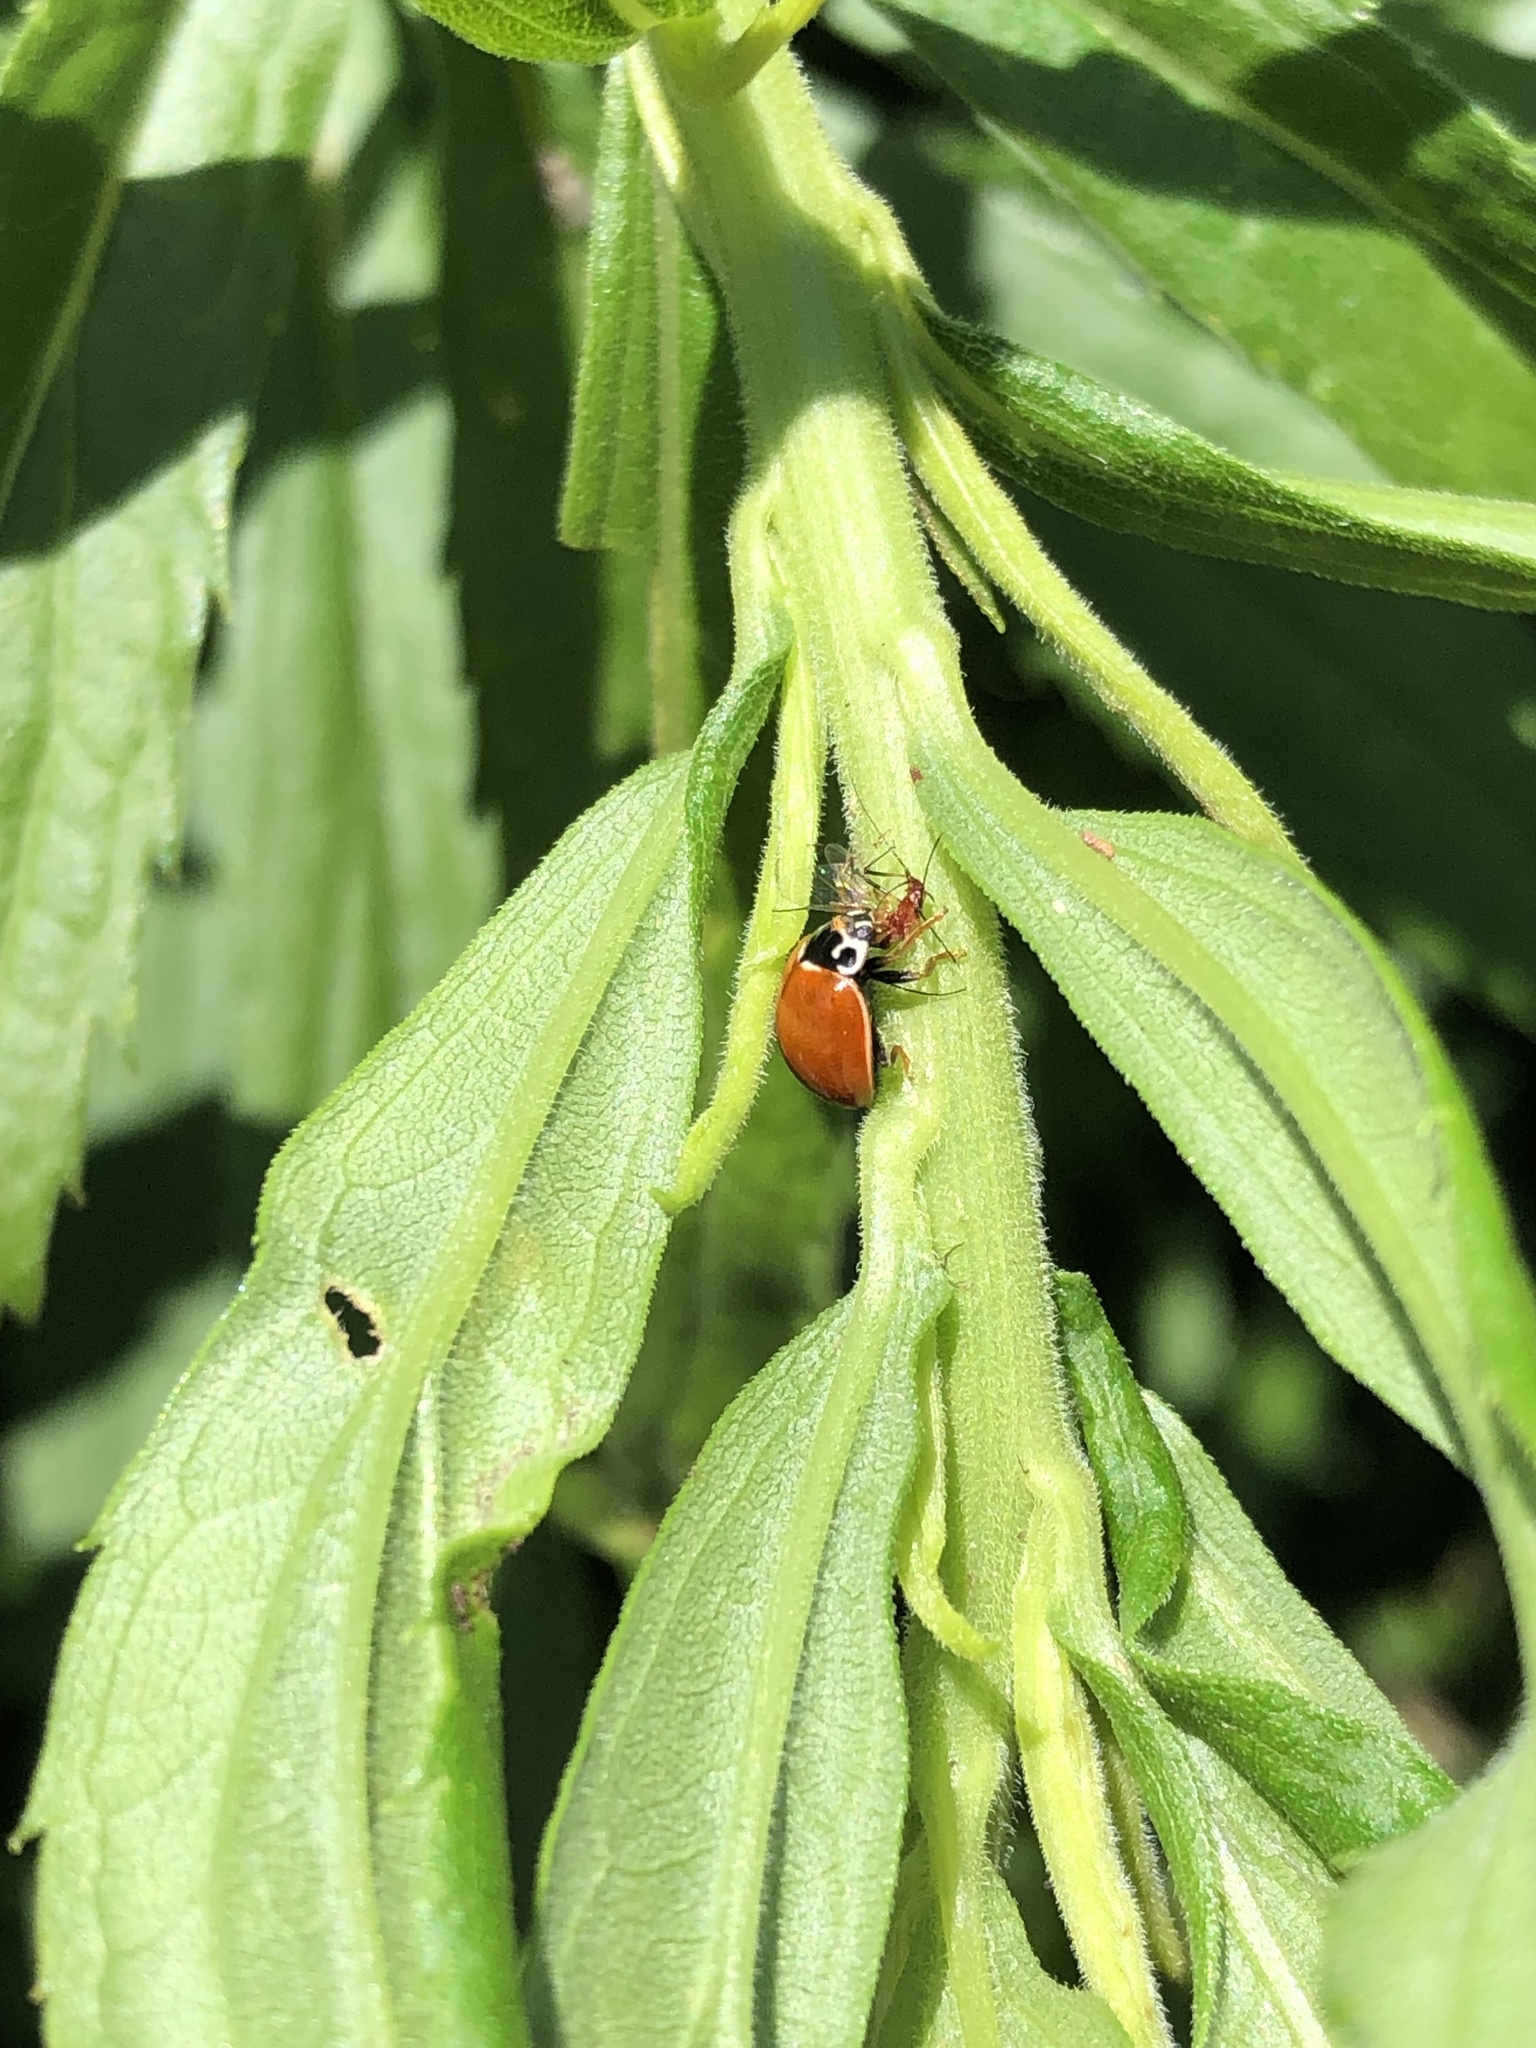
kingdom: Animalia
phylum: Arthropoda
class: Insecta
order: Coleoptera
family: Coccinellidae
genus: Cycloneda
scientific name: Cycloneda munda
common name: Polished lady beetle
